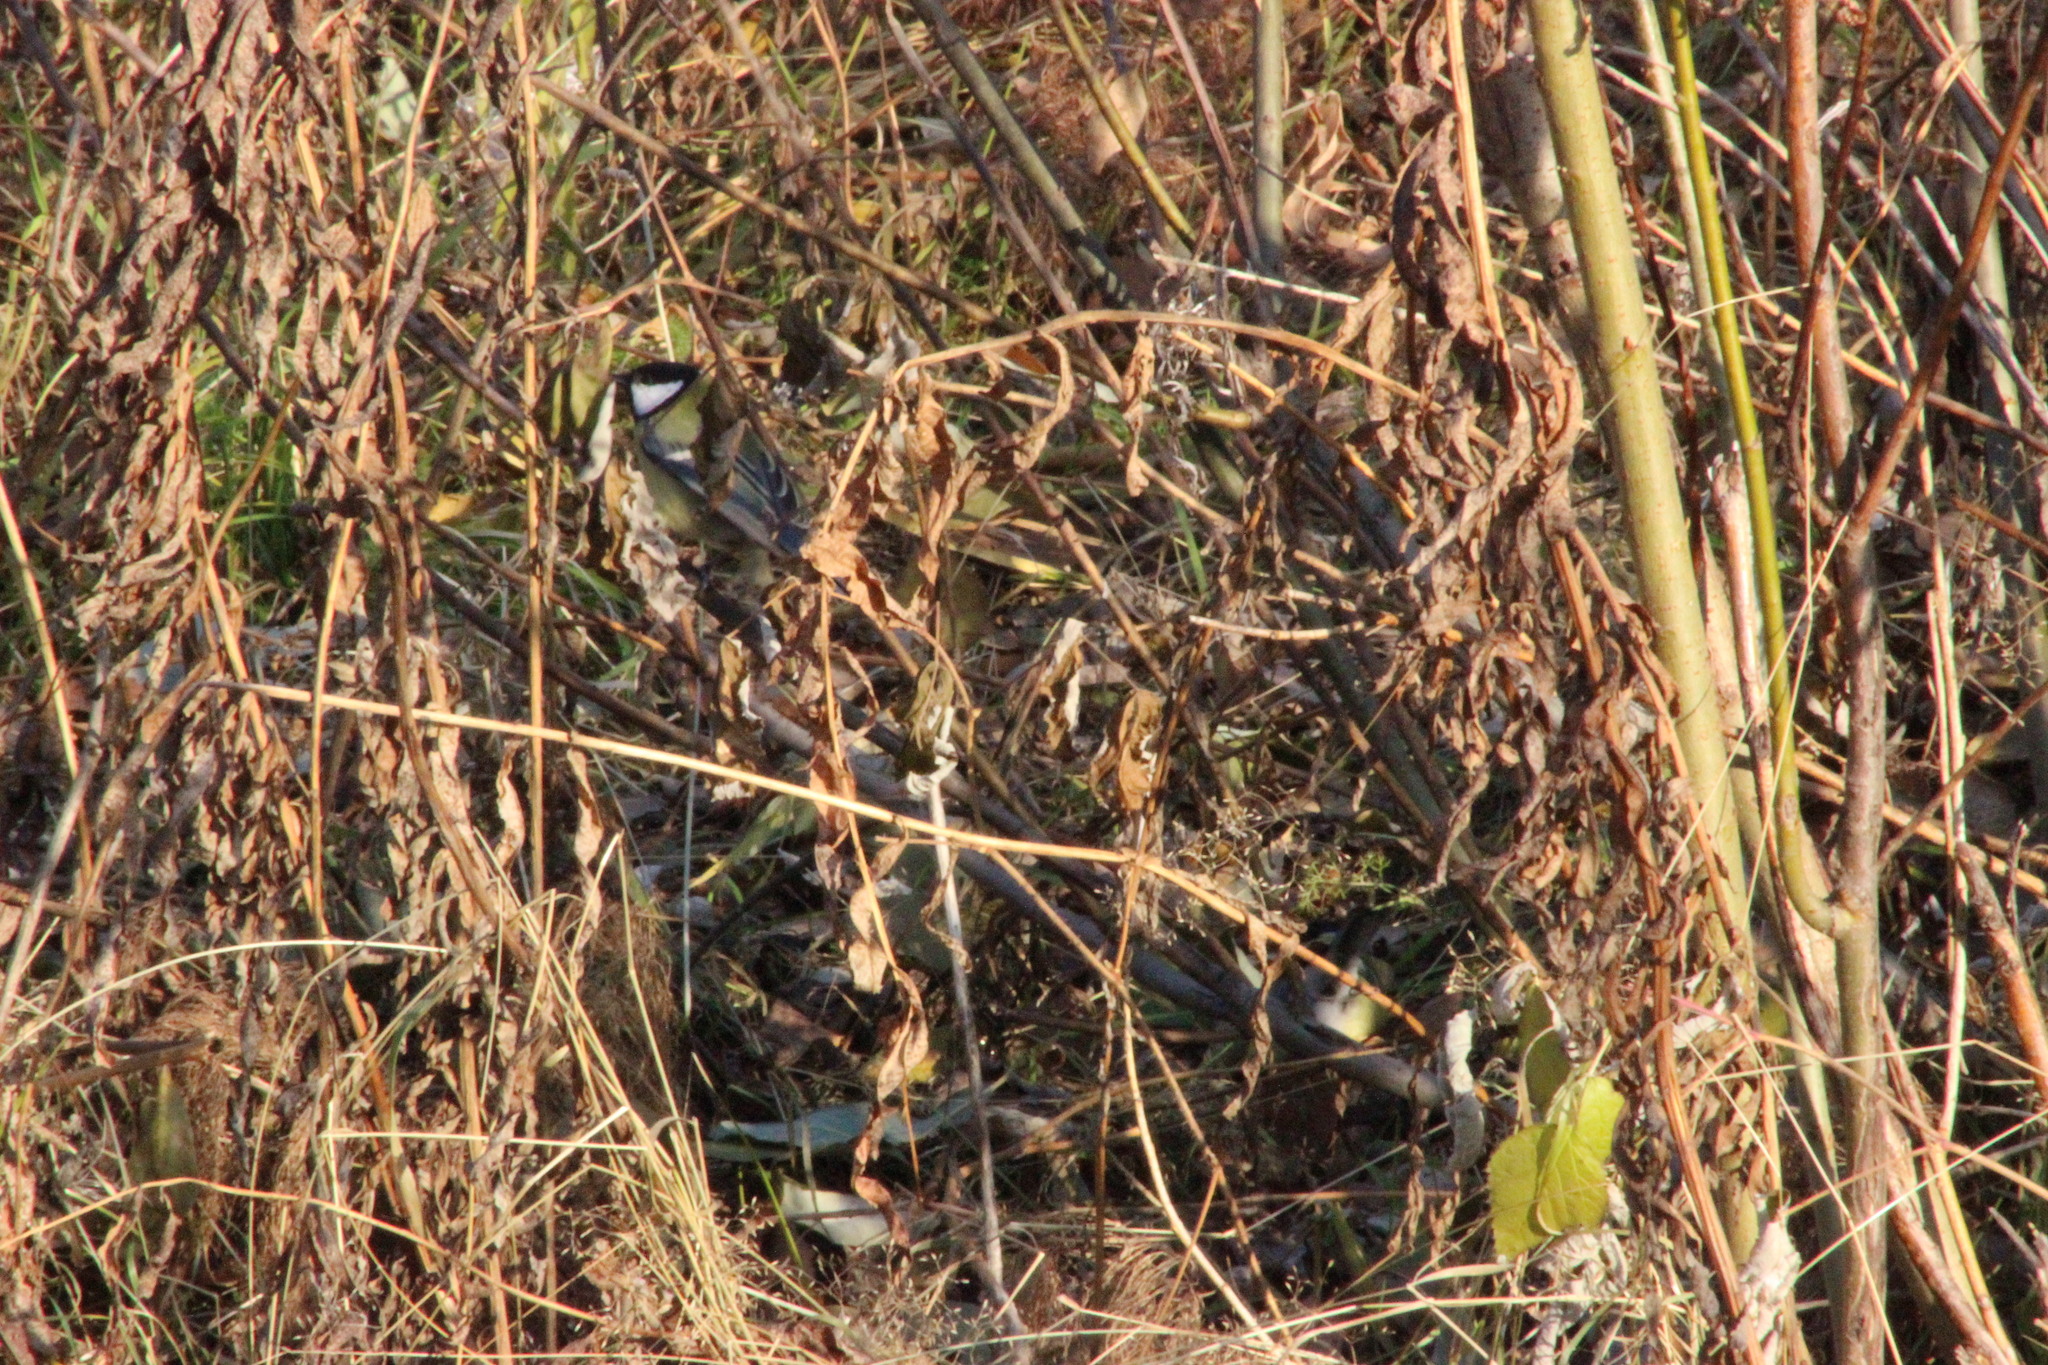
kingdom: Animalia
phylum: Chordata
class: Aves
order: Passeriformes
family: Paridae
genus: Parus
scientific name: Parus major
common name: Great tit
